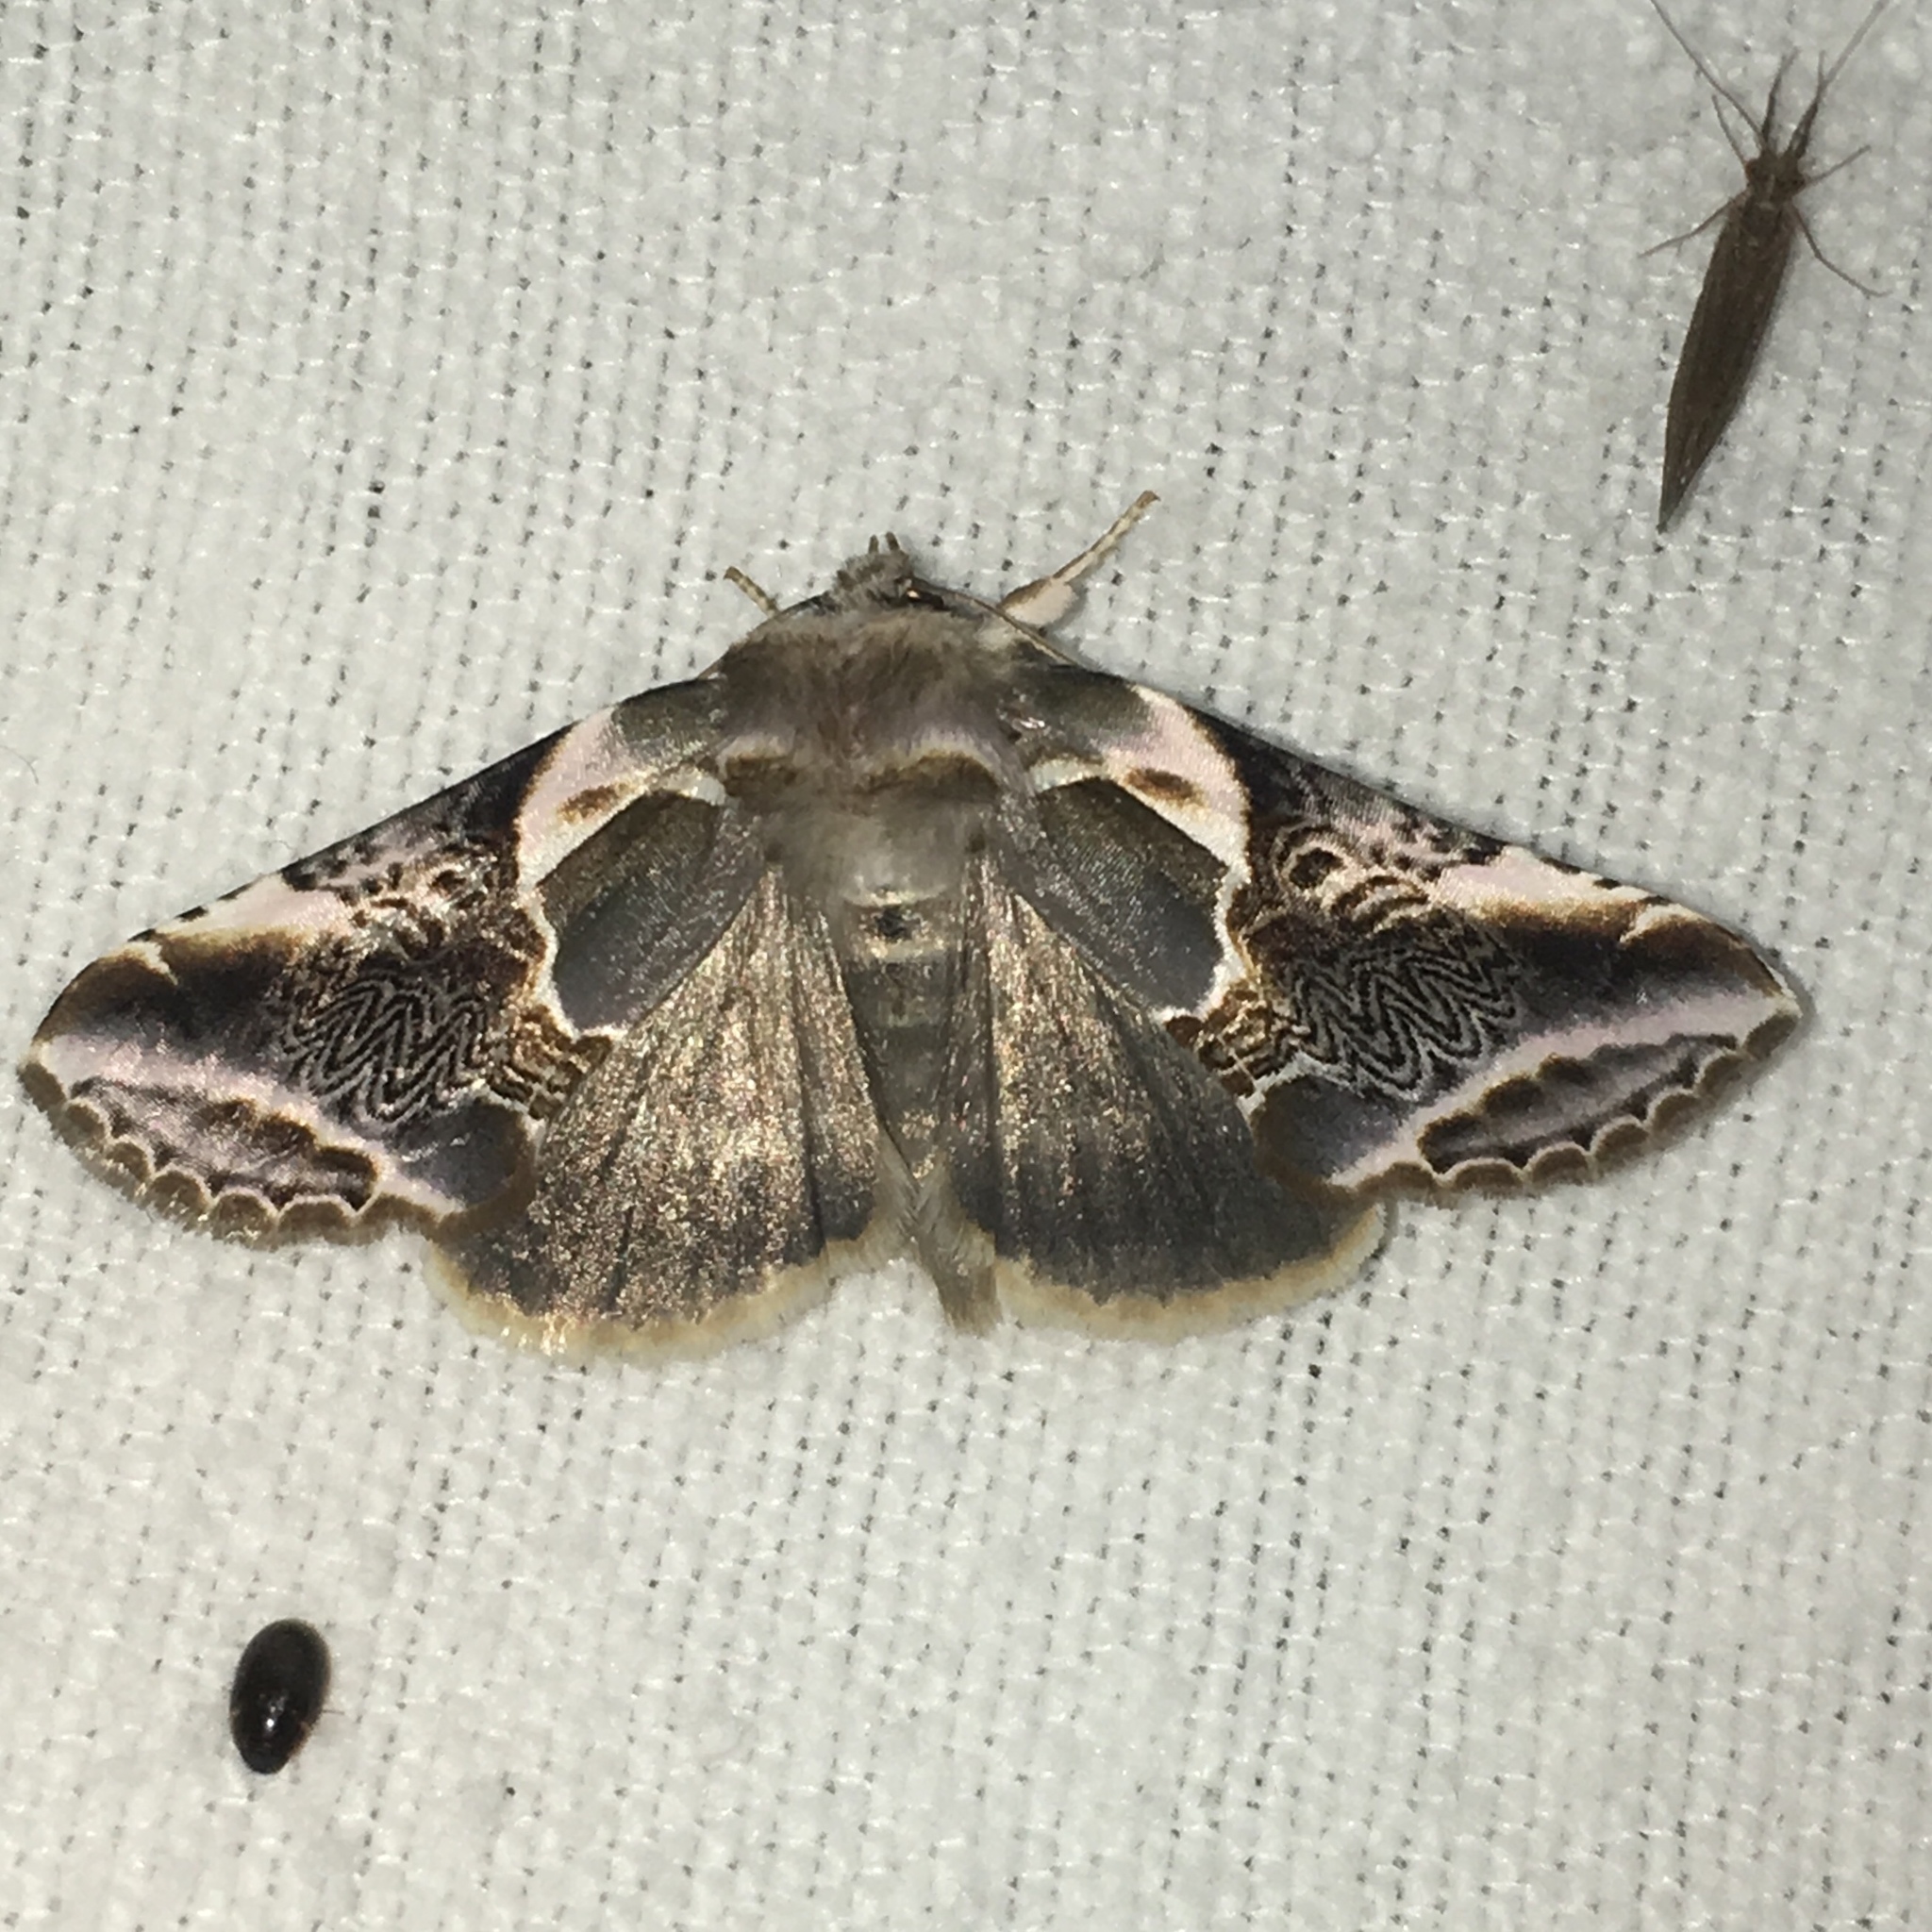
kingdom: Animalia
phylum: Arthropoda
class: Insecta
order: Lepidoptera
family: Drepanidae
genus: Habrosyne
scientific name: Habrosyne scripta
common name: Lettered habrosyne moth
